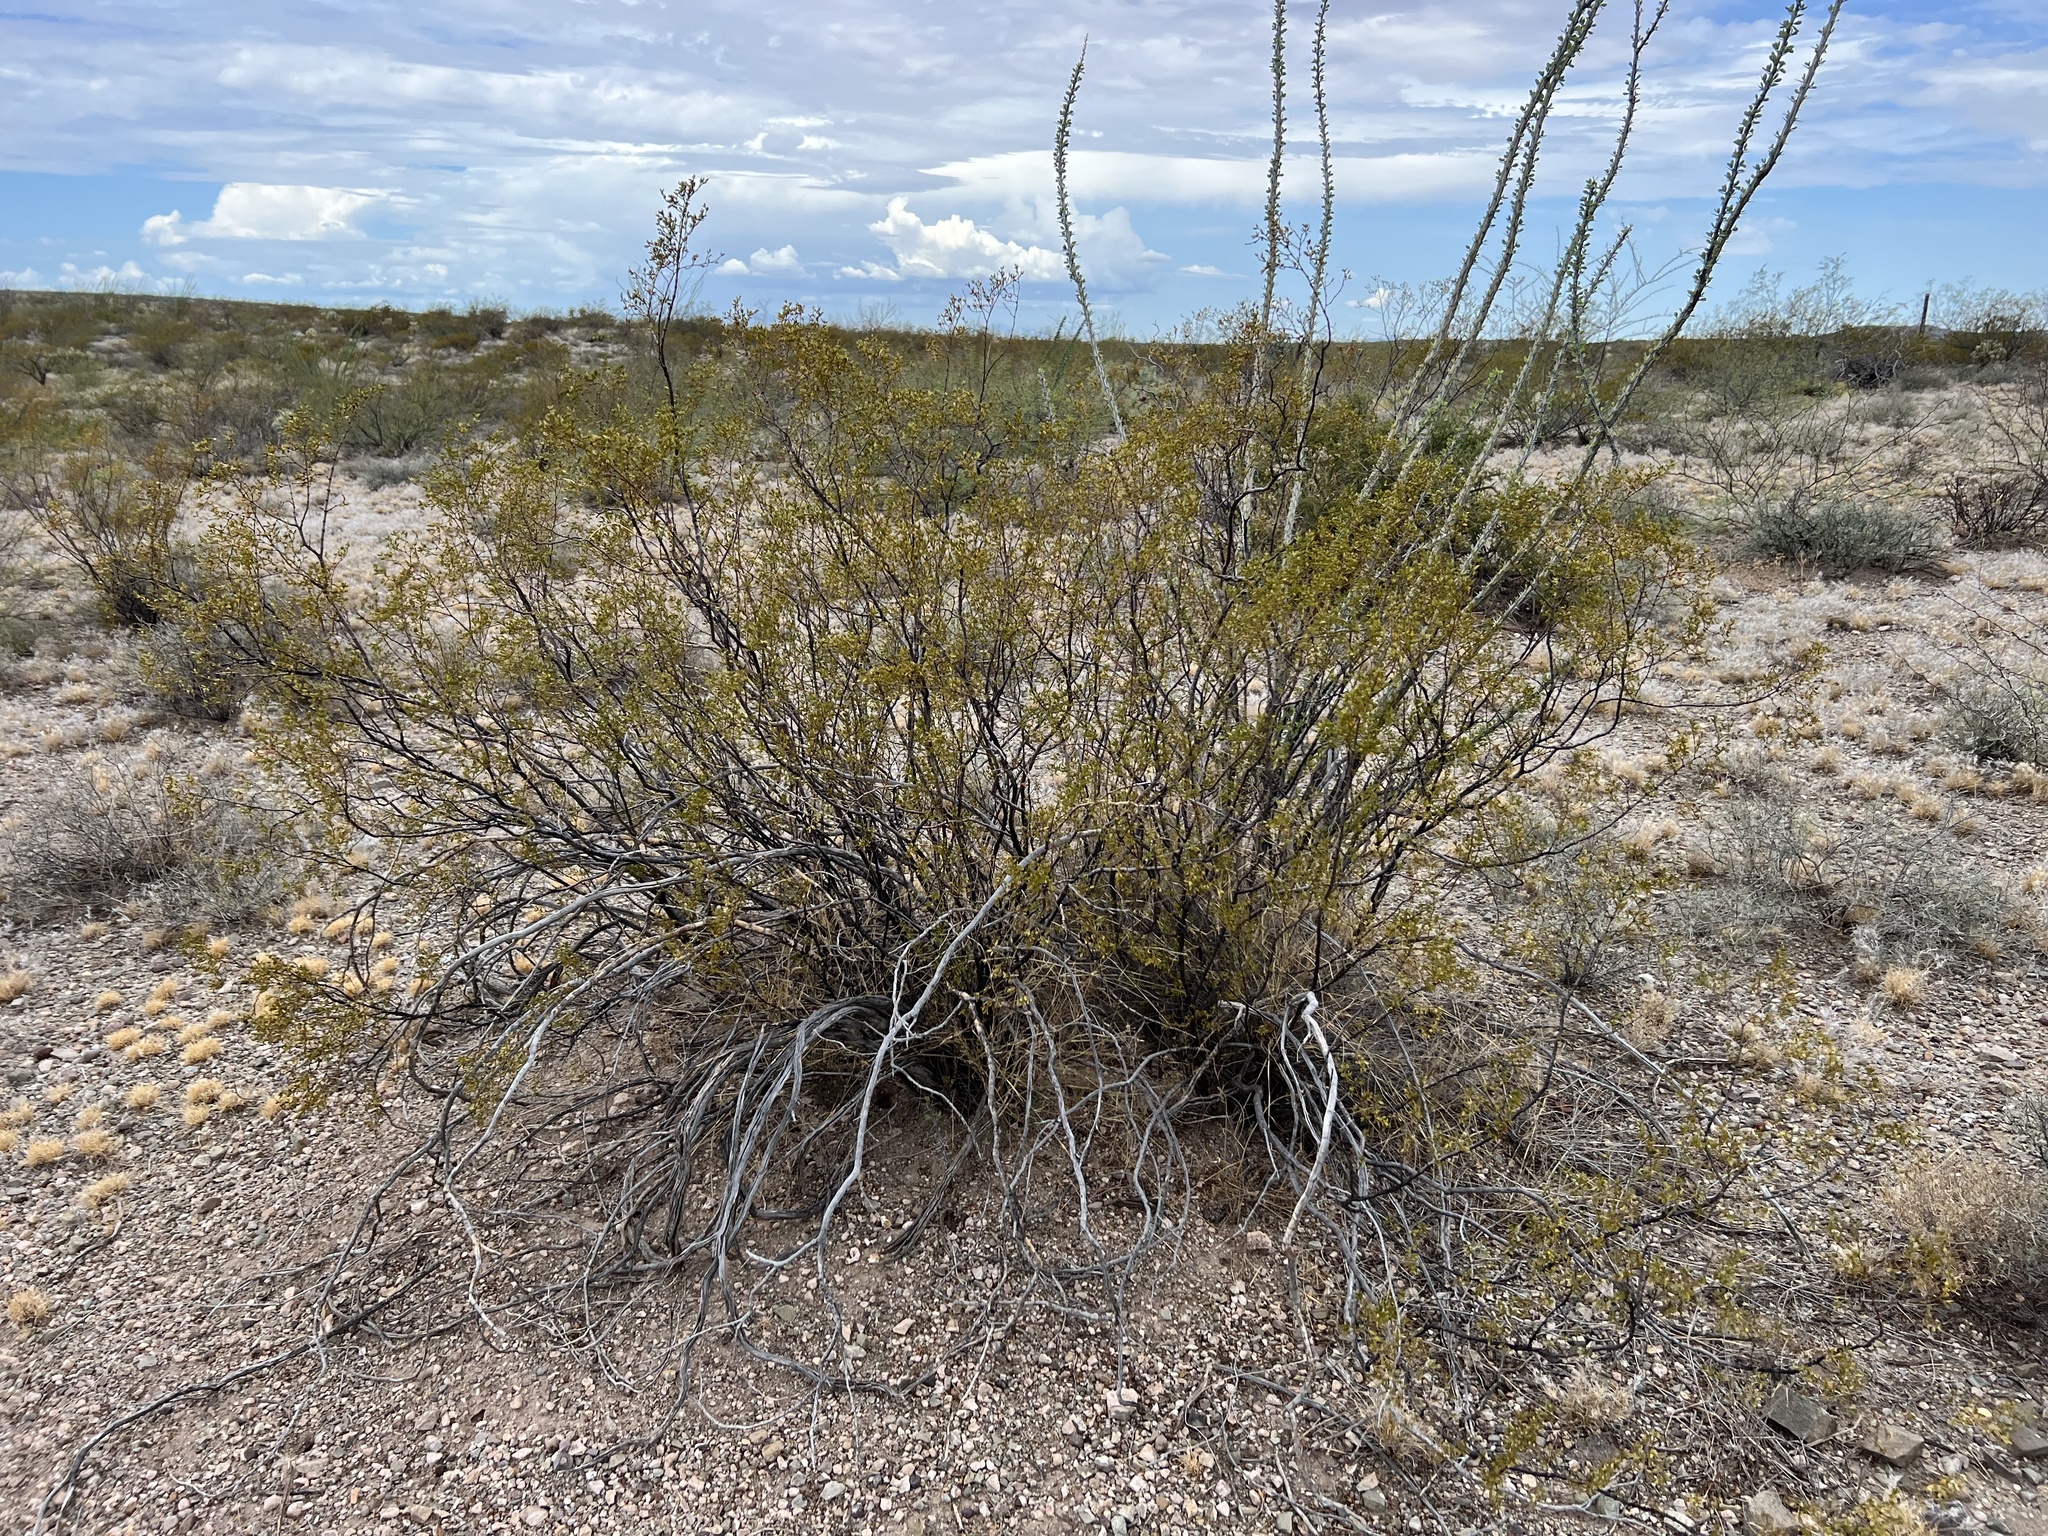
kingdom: Plantae
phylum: Tracheophyta
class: Magnoliopsida
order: Zygophyllales
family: Zygophyllaceae
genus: Larrea
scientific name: Larrea tridentata
